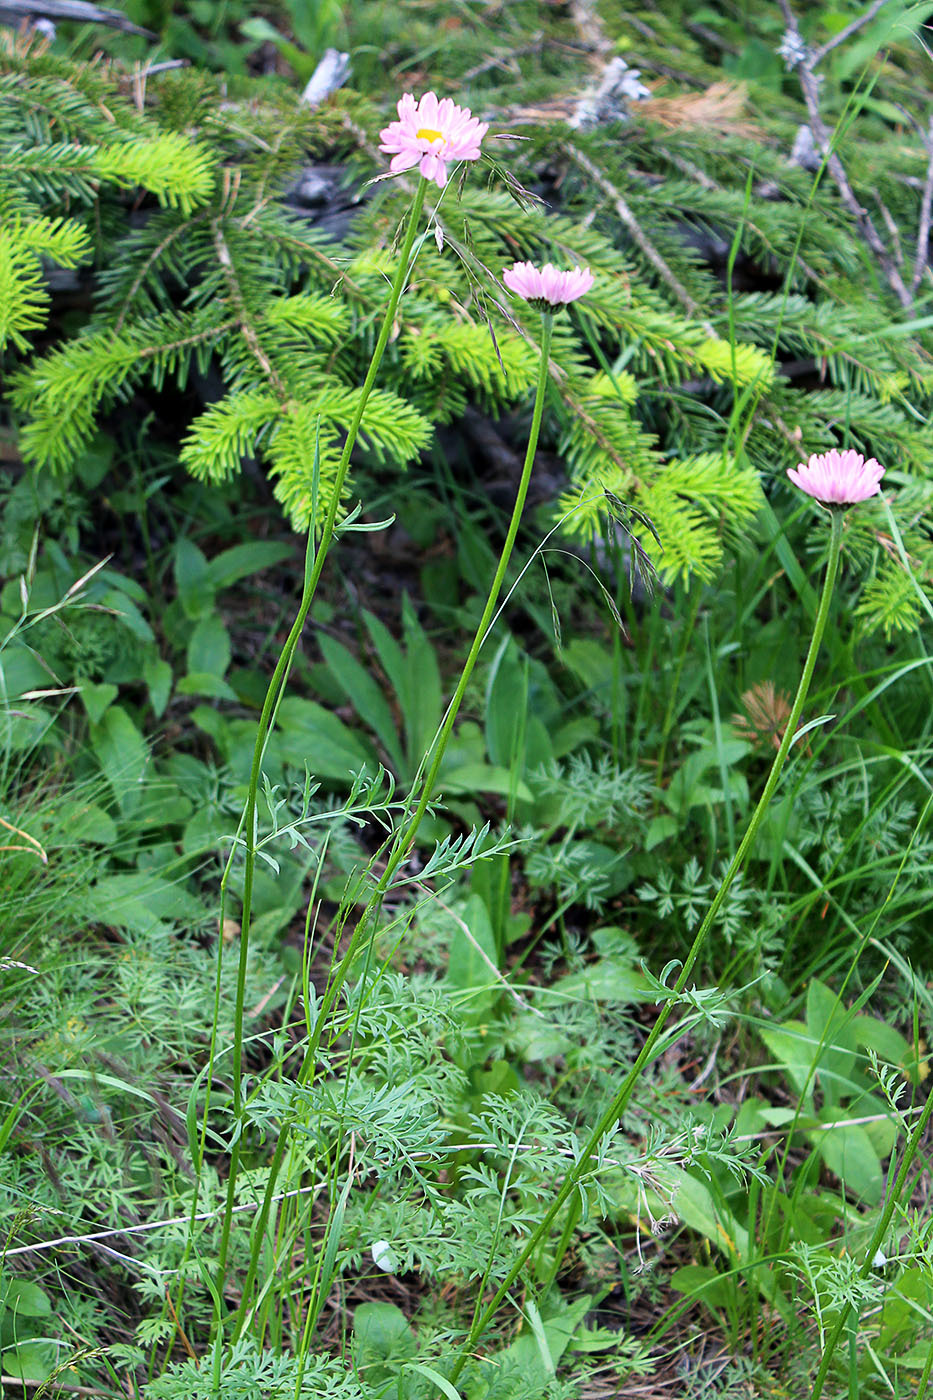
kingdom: Plantae
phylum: Tracheophyta
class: Magnoliopsida
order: Asterales
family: Asteraceae
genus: Tanacetum
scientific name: Tanacetum coccineum
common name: Pyrethum daisy
